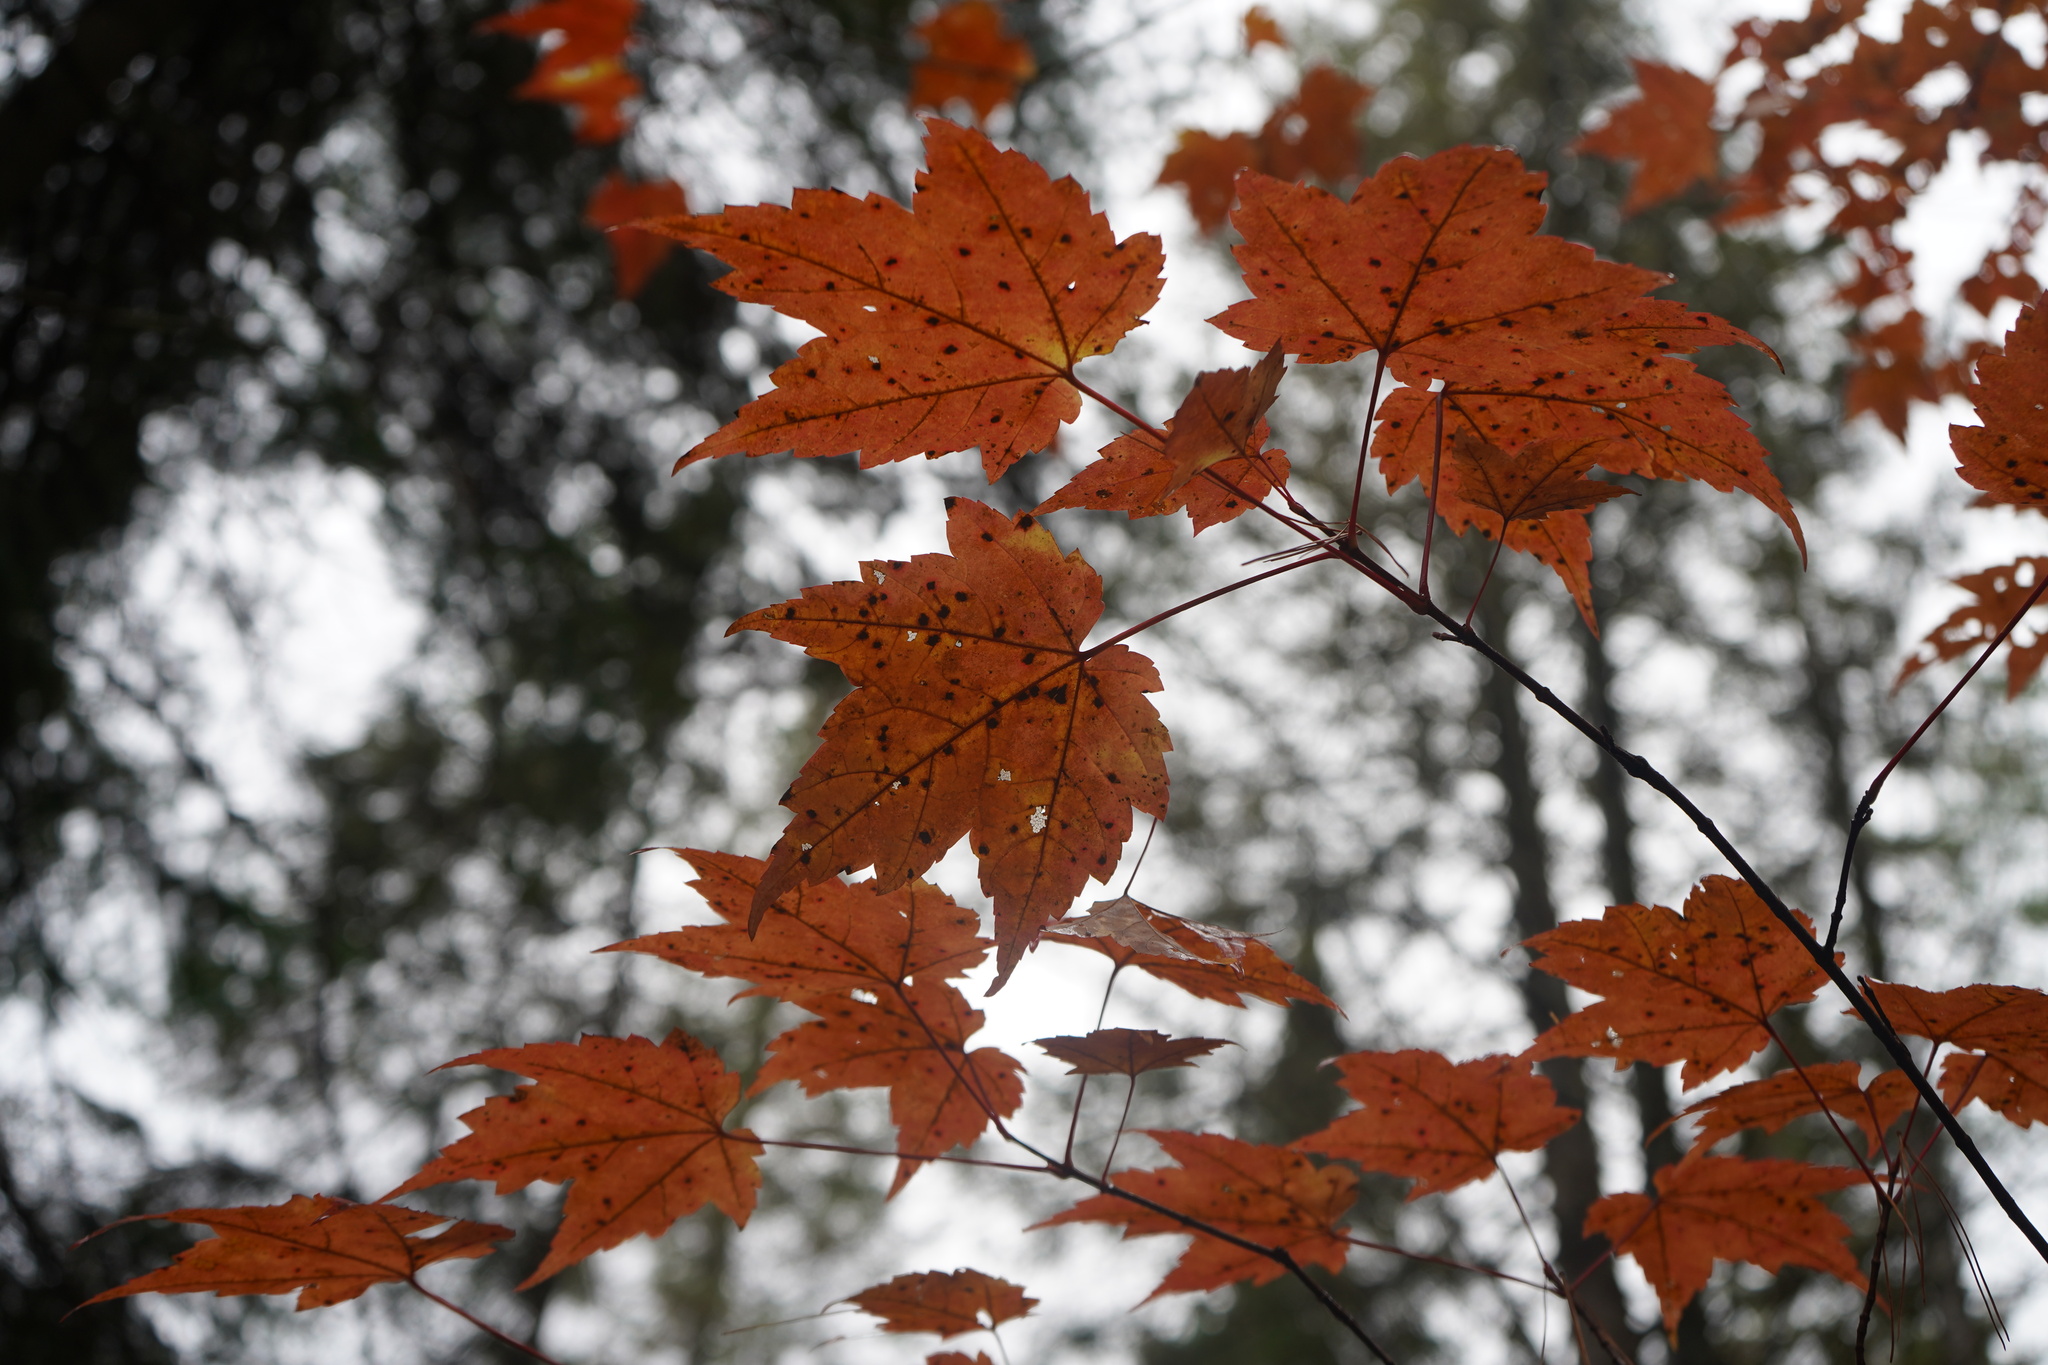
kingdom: Plantae
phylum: Tracheophyta
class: Magnoliopsida
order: Sapindales
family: Sapindaceae
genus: Acer
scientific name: Acer rubrum
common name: Red maple
